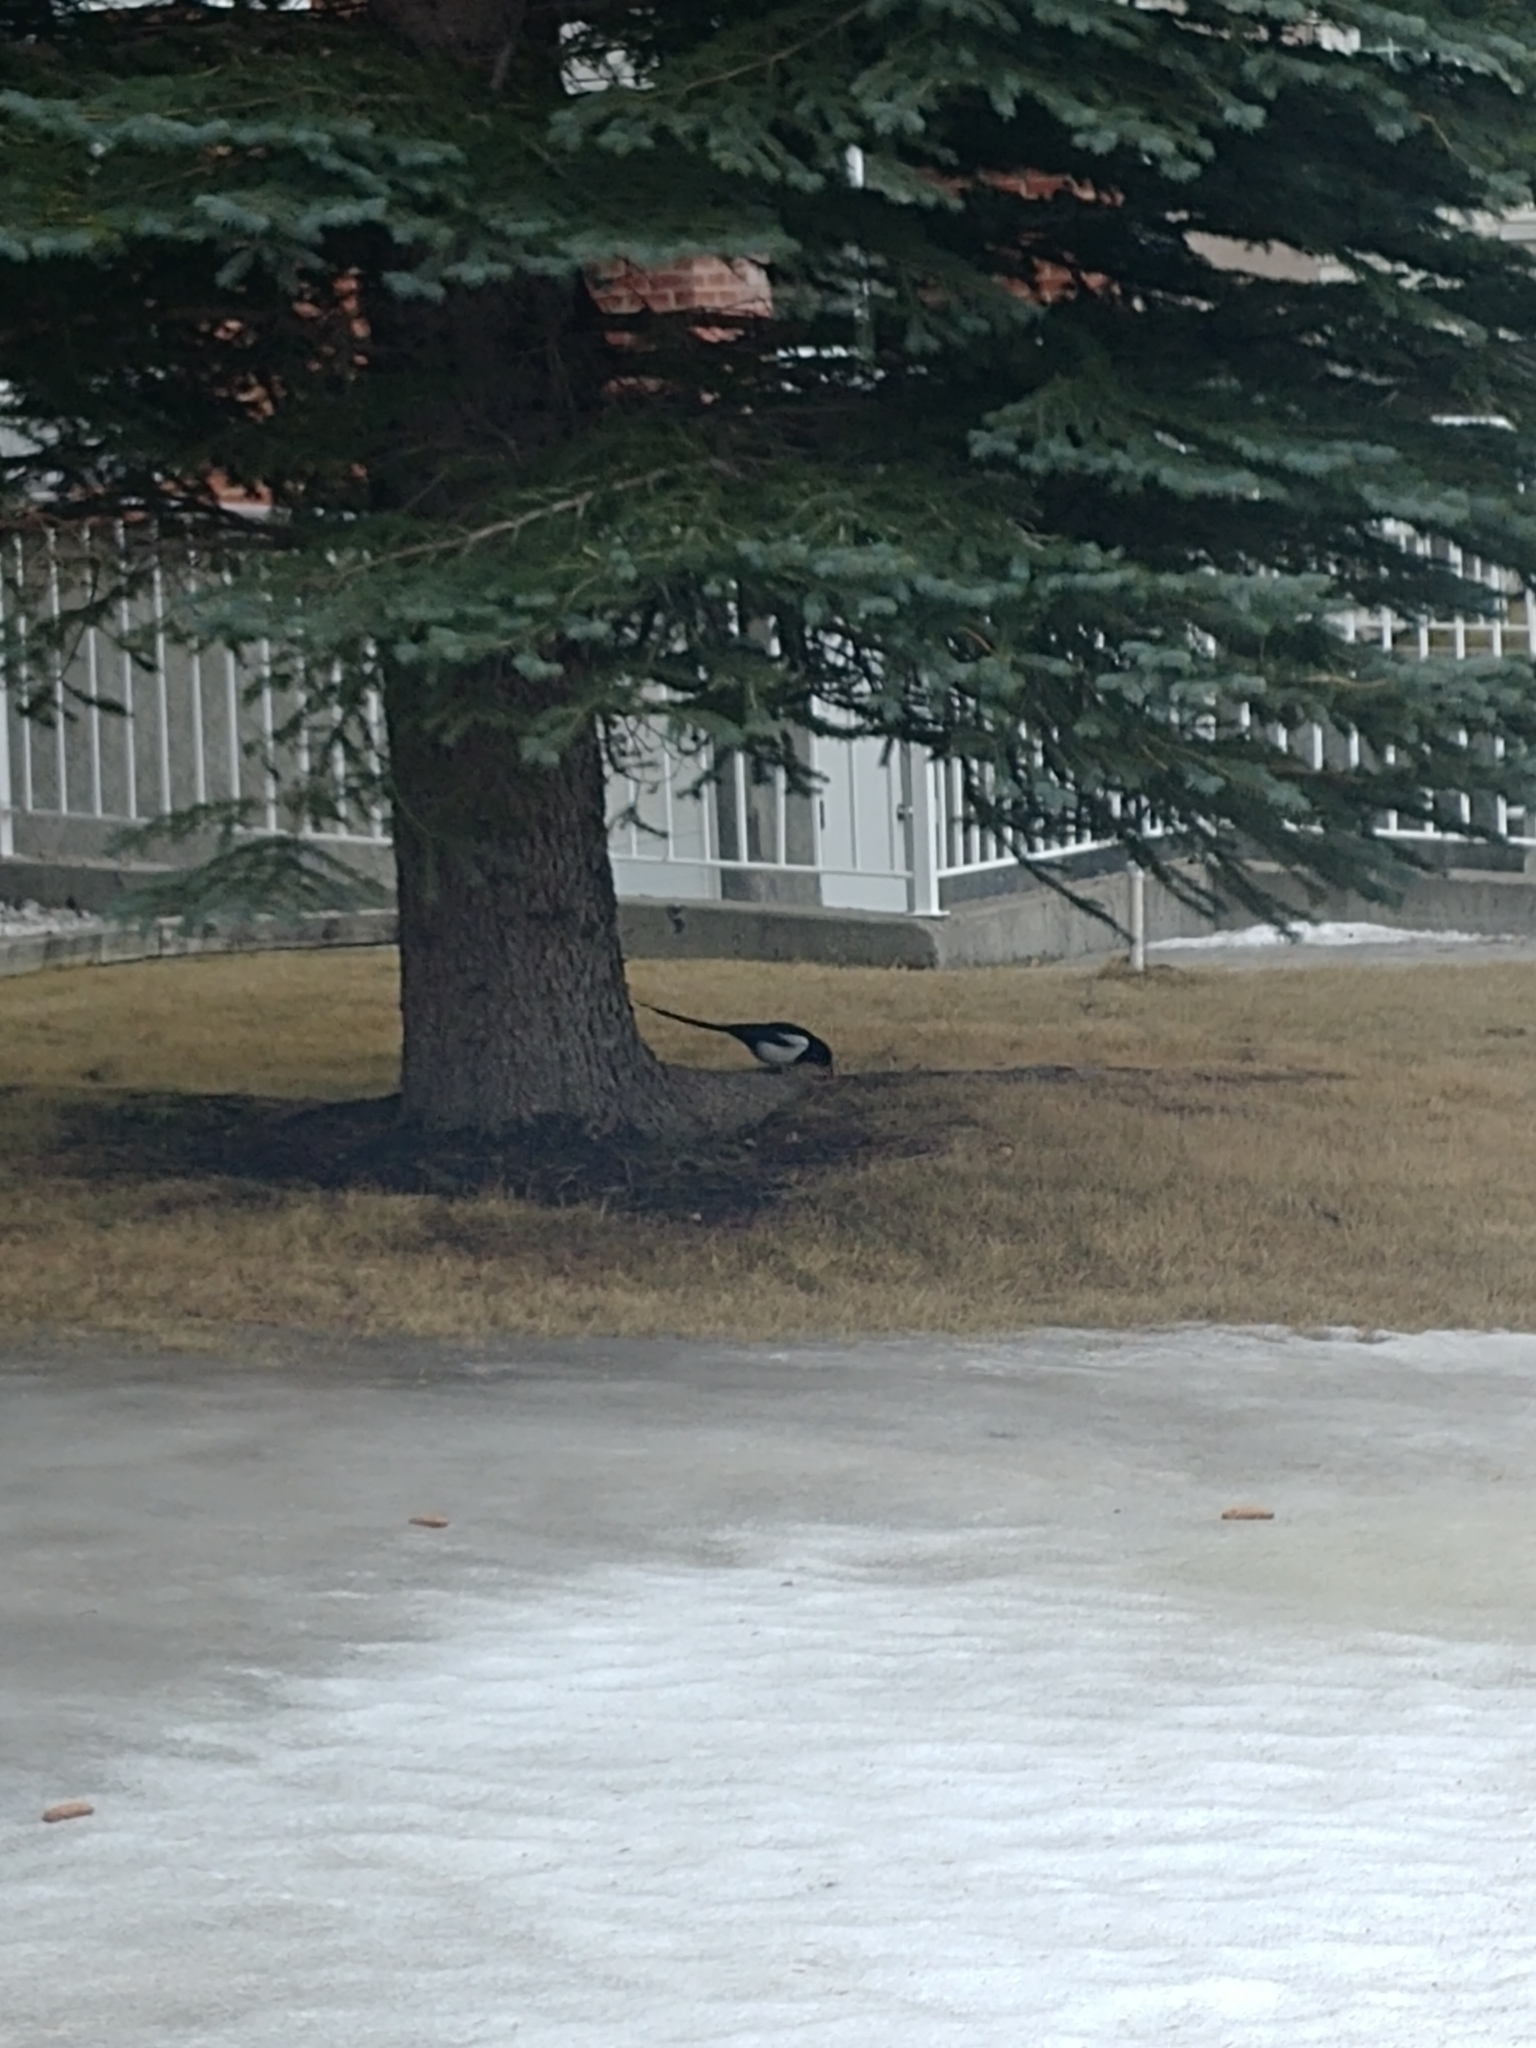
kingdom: Animalia
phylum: Chordata
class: Aves
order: Passeriformes
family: Corvidae
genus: Pica
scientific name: Pica hudsonia
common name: Black-billed magpie
